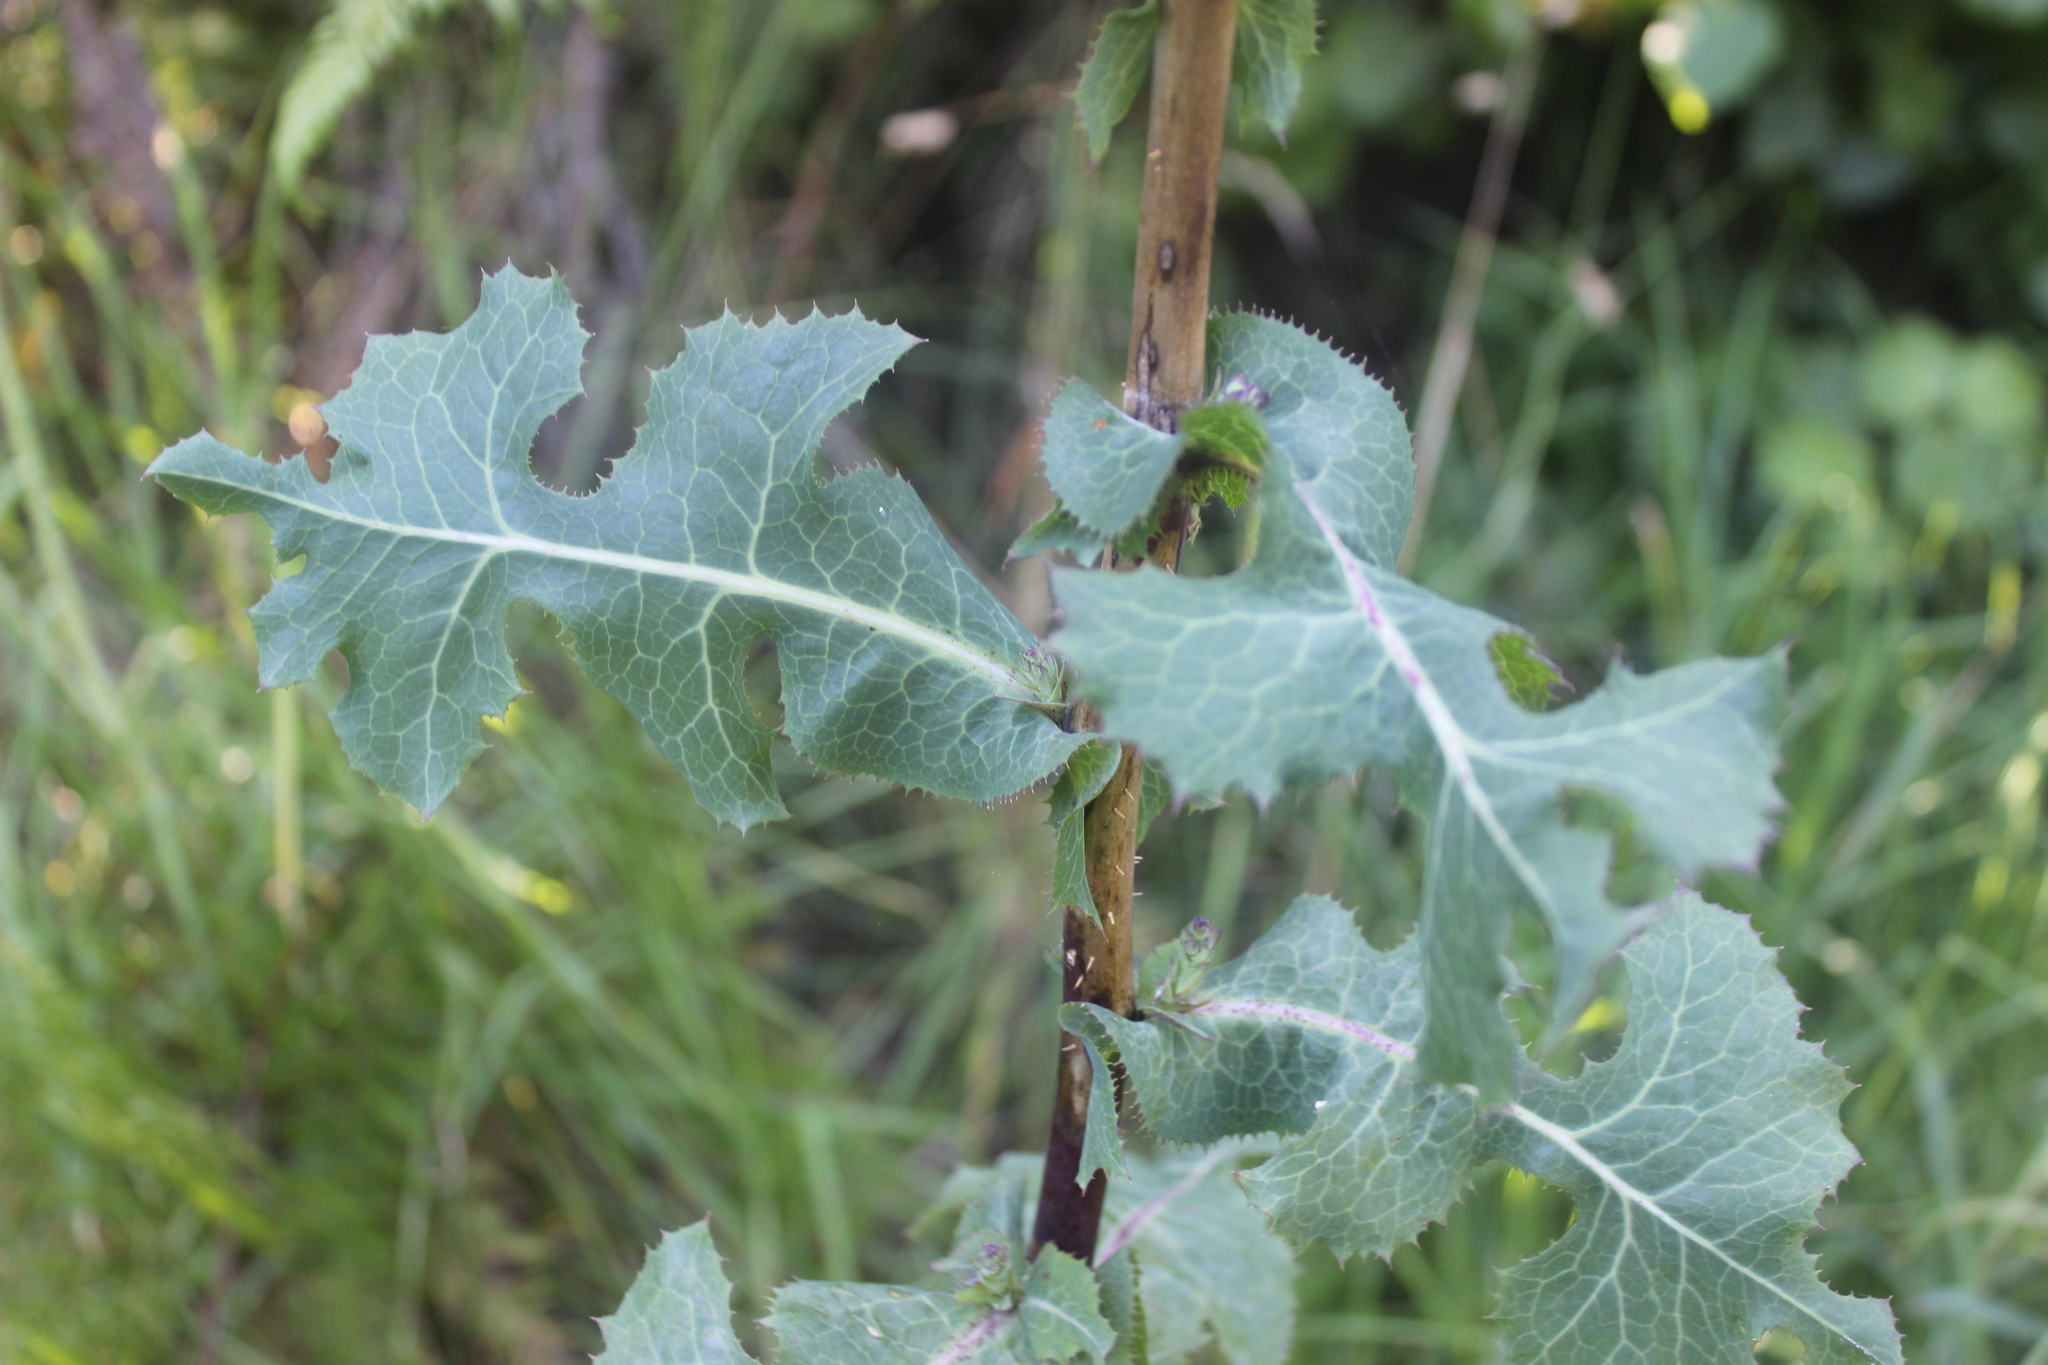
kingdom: Plantae
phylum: Tracheophyta
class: Magnoliopsida
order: Asterales
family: Asteraceae
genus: Lactuca
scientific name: Lactuca virosa
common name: Great lettuce
